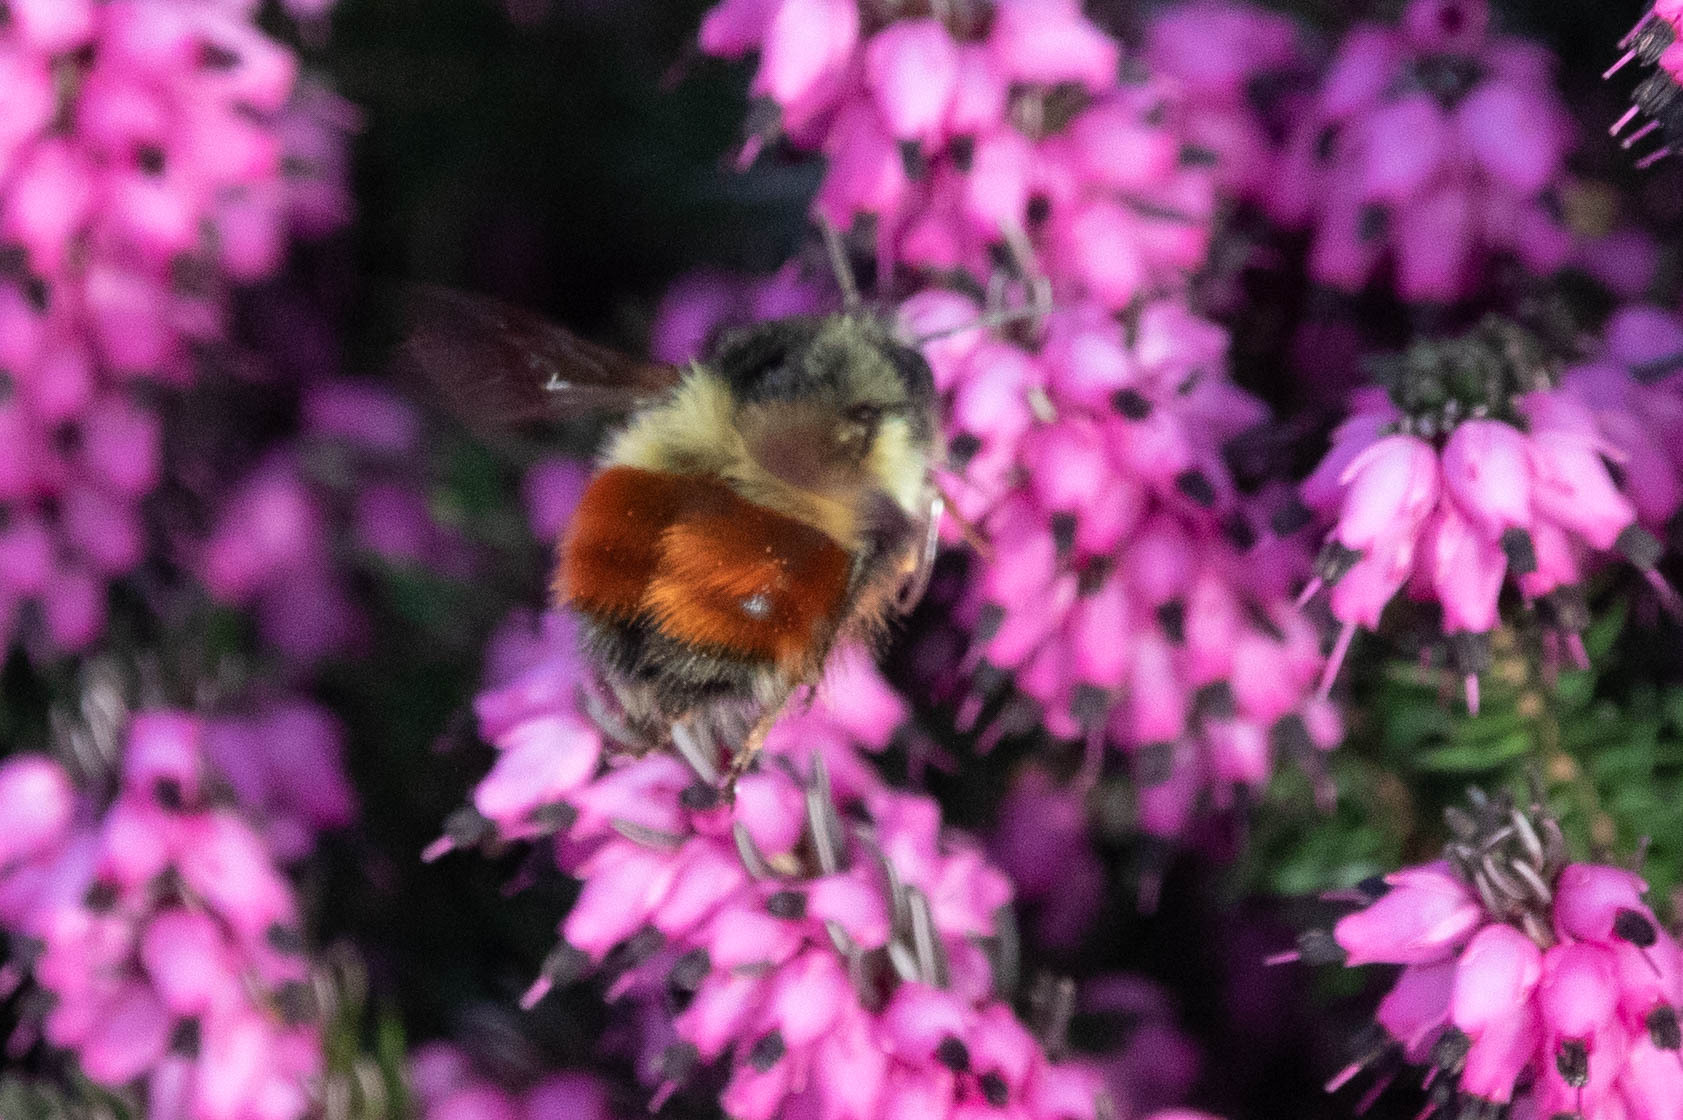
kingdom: Animalia
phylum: Arthropoda
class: Insecta
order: Hymenoptera
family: Apidae
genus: Bombus
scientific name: Bombus melanopygus
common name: Black tail bumble bee
